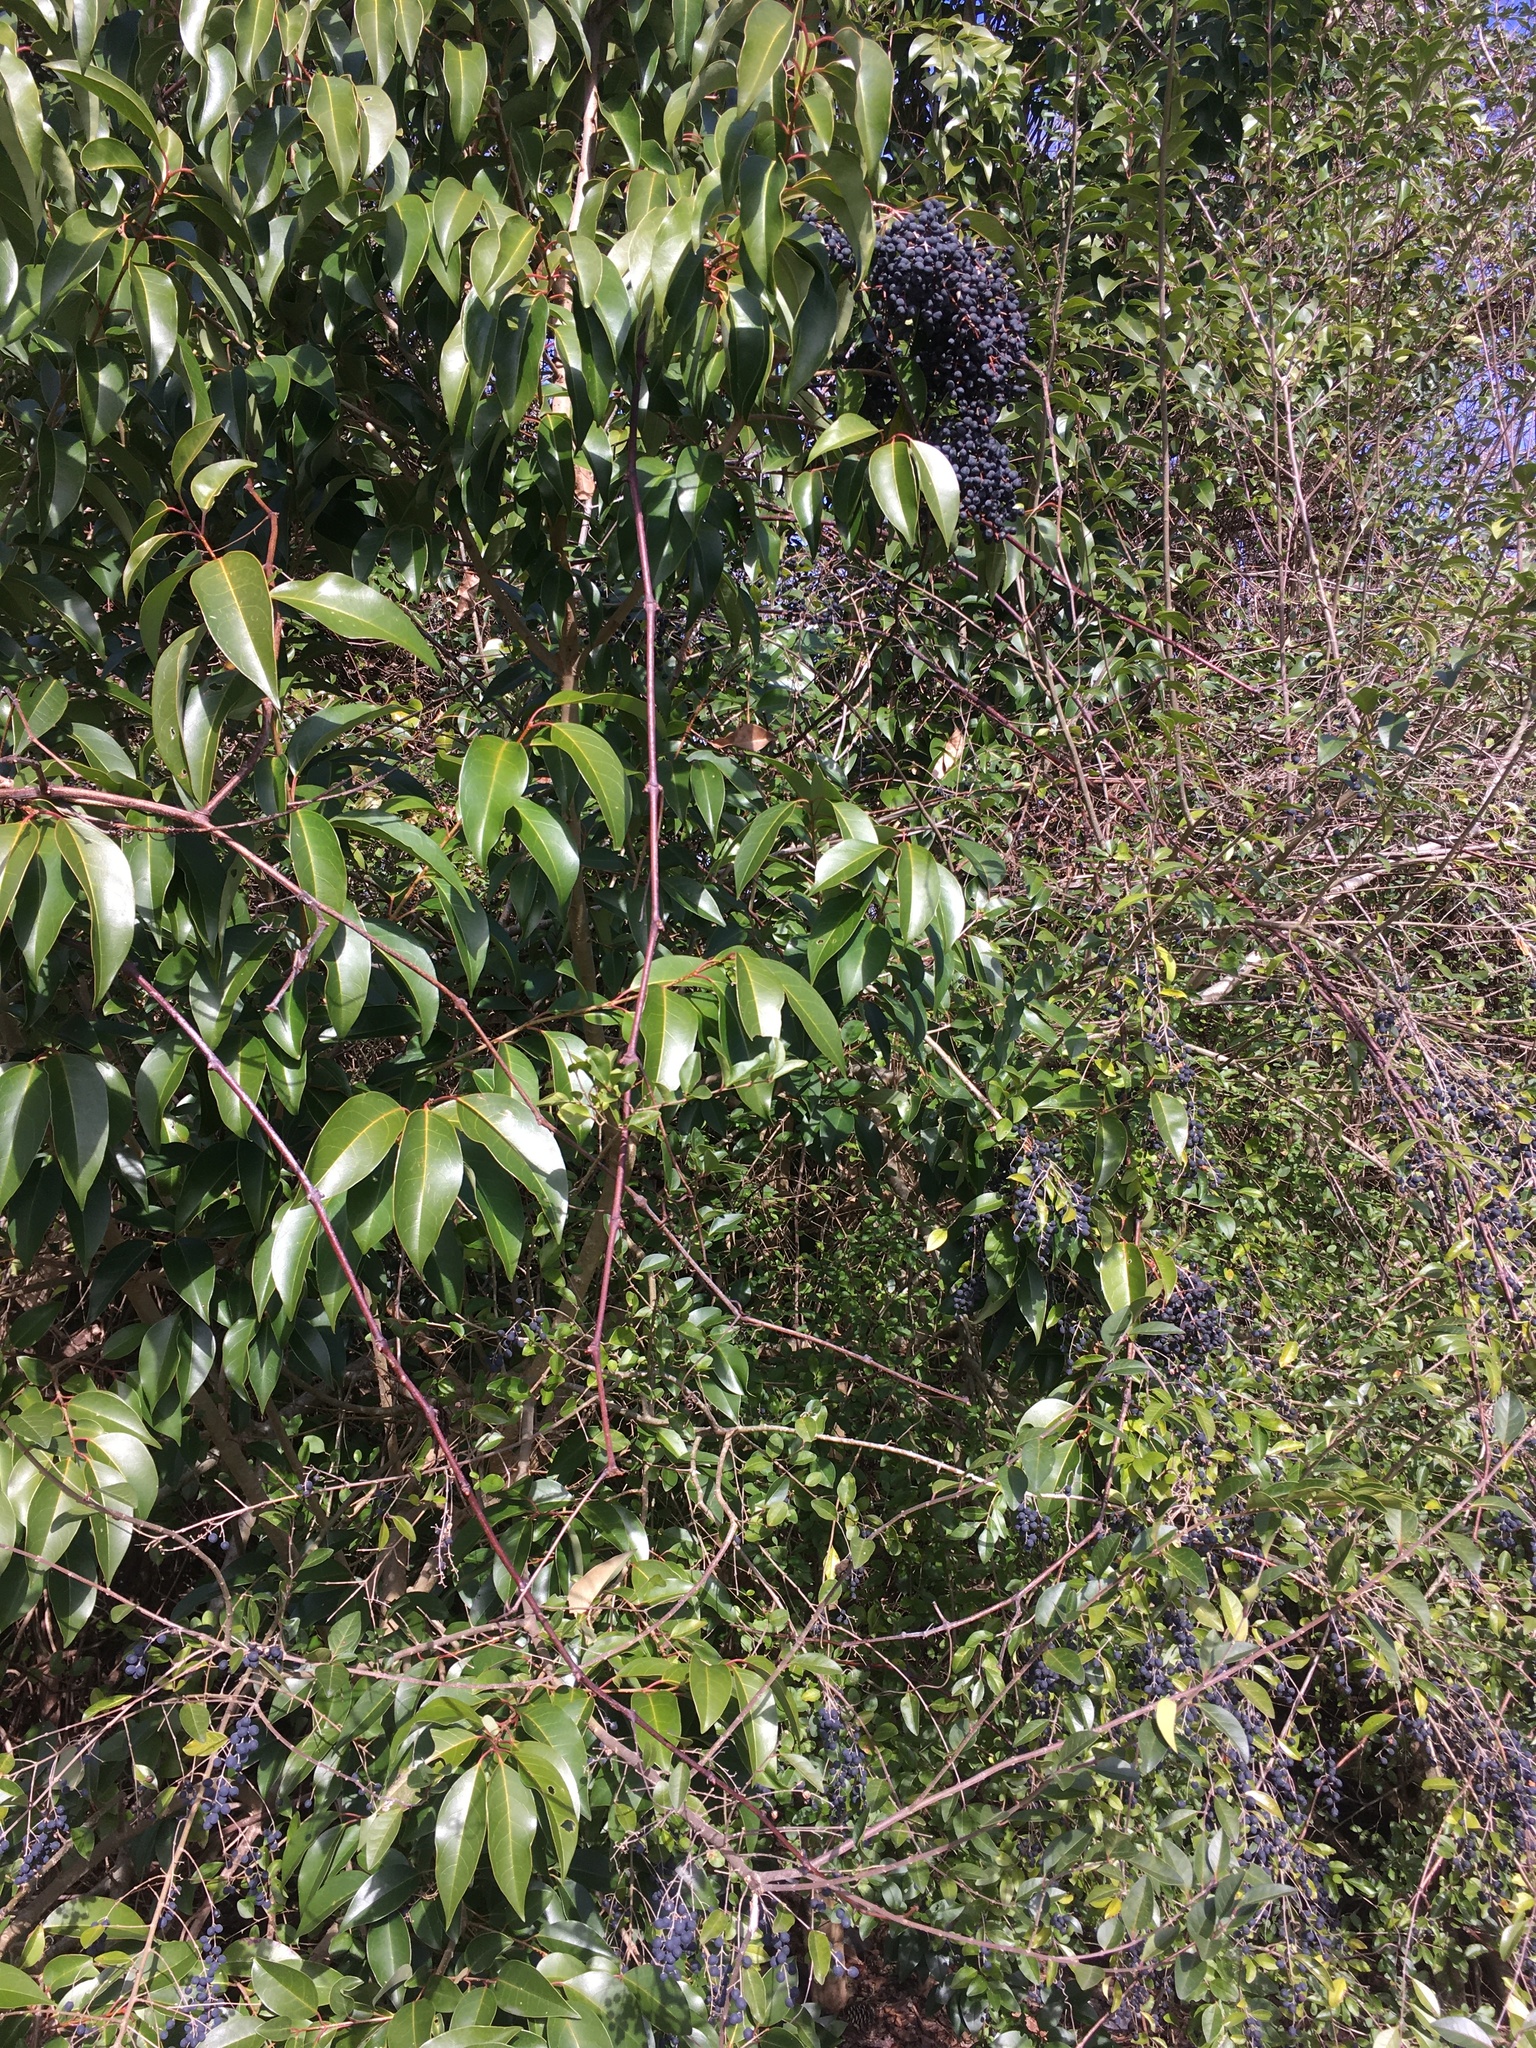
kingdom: Plantae
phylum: Tracheophyta
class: Magnoliopsida
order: Lamiales
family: Oleaceae
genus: Ligustrum
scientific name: Ligustrum lucidum
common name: Glossy privet
